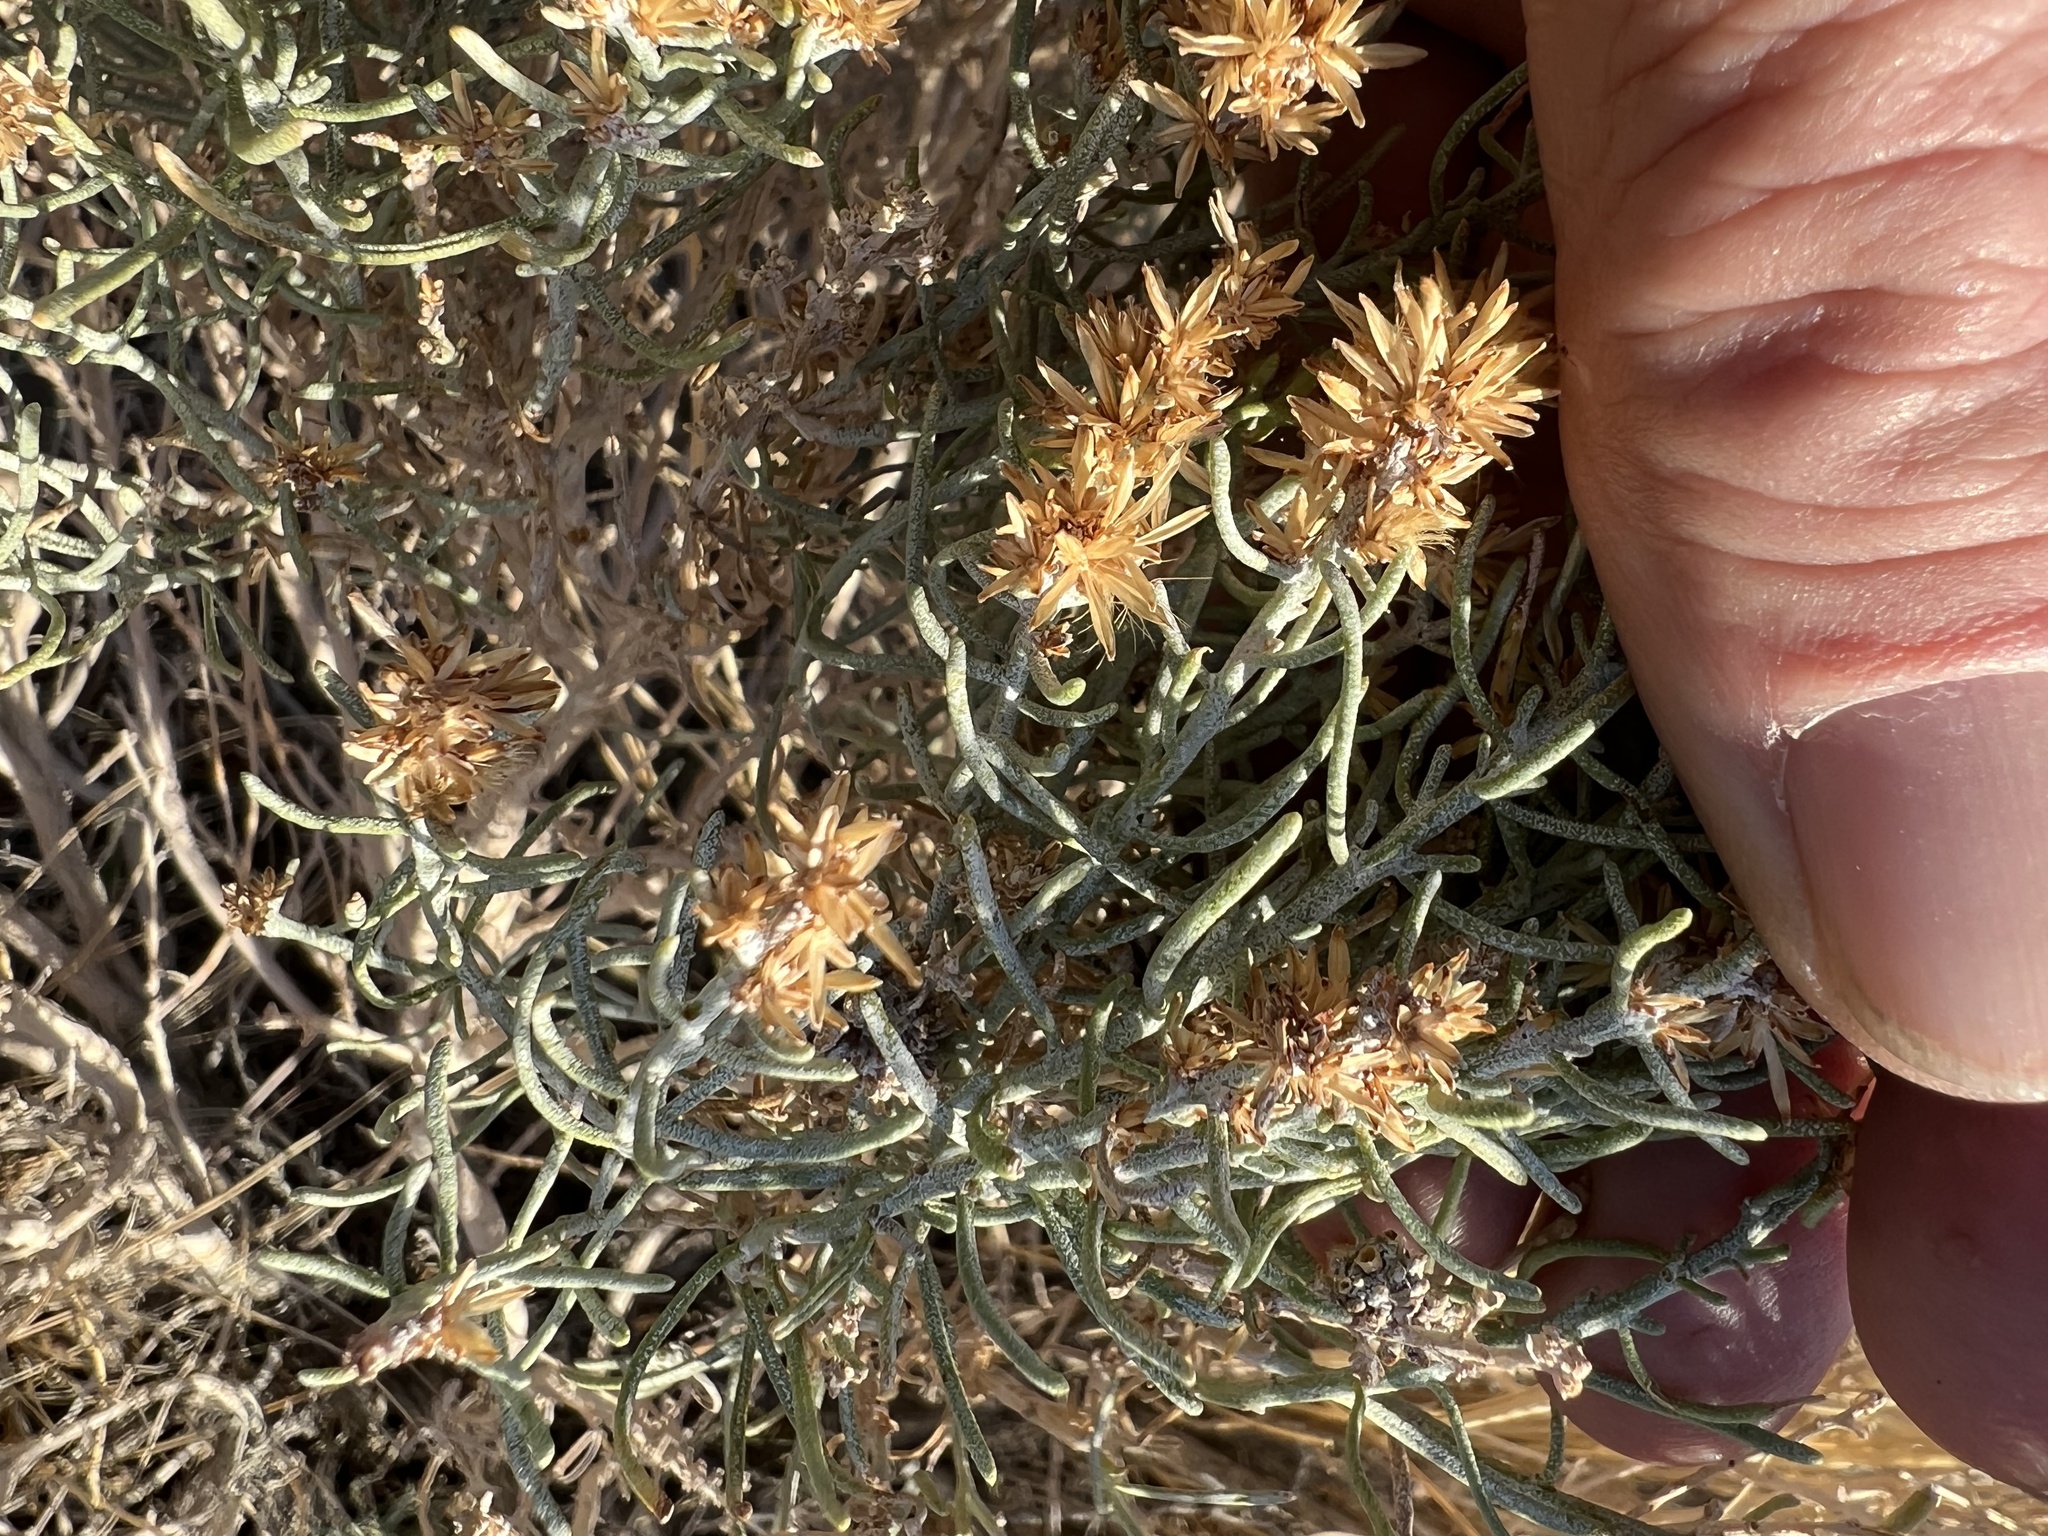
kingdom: Plantae
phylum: Tracheophyta
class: Magnoliopsida
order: Asterales
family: Asteraceae
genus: Ericameria
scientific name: Ericameria teretifolia
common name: Round-leaf rabbitbrush
